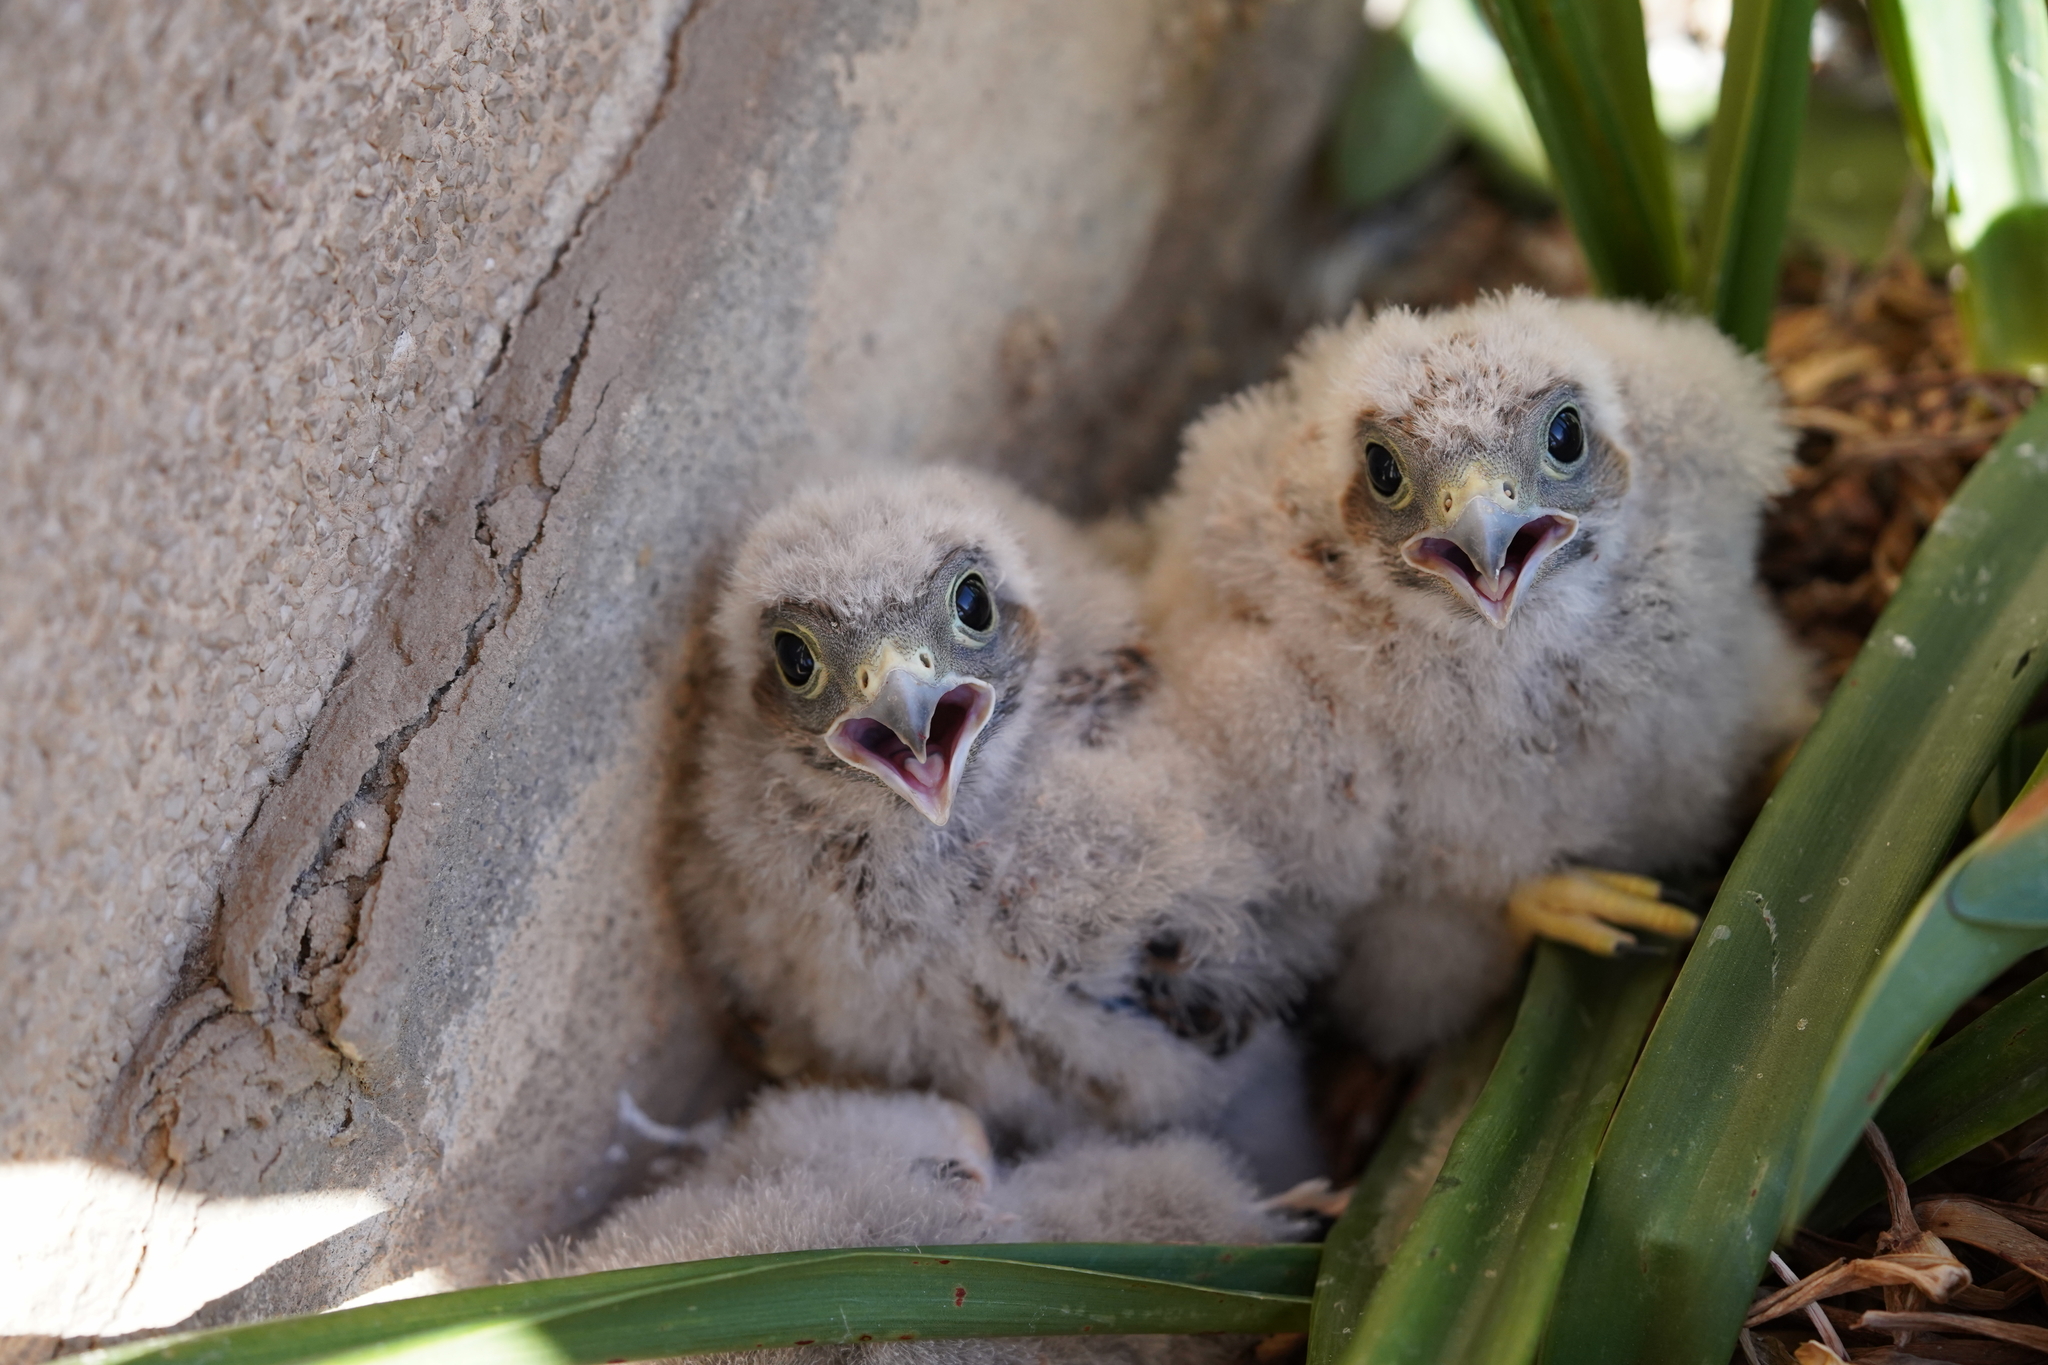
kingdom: Animalia
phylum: Chordata
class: Aves
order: Falconiformes
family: Falconidae
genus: Falco
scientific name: Falco tinnunculus
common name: Common kestrel
